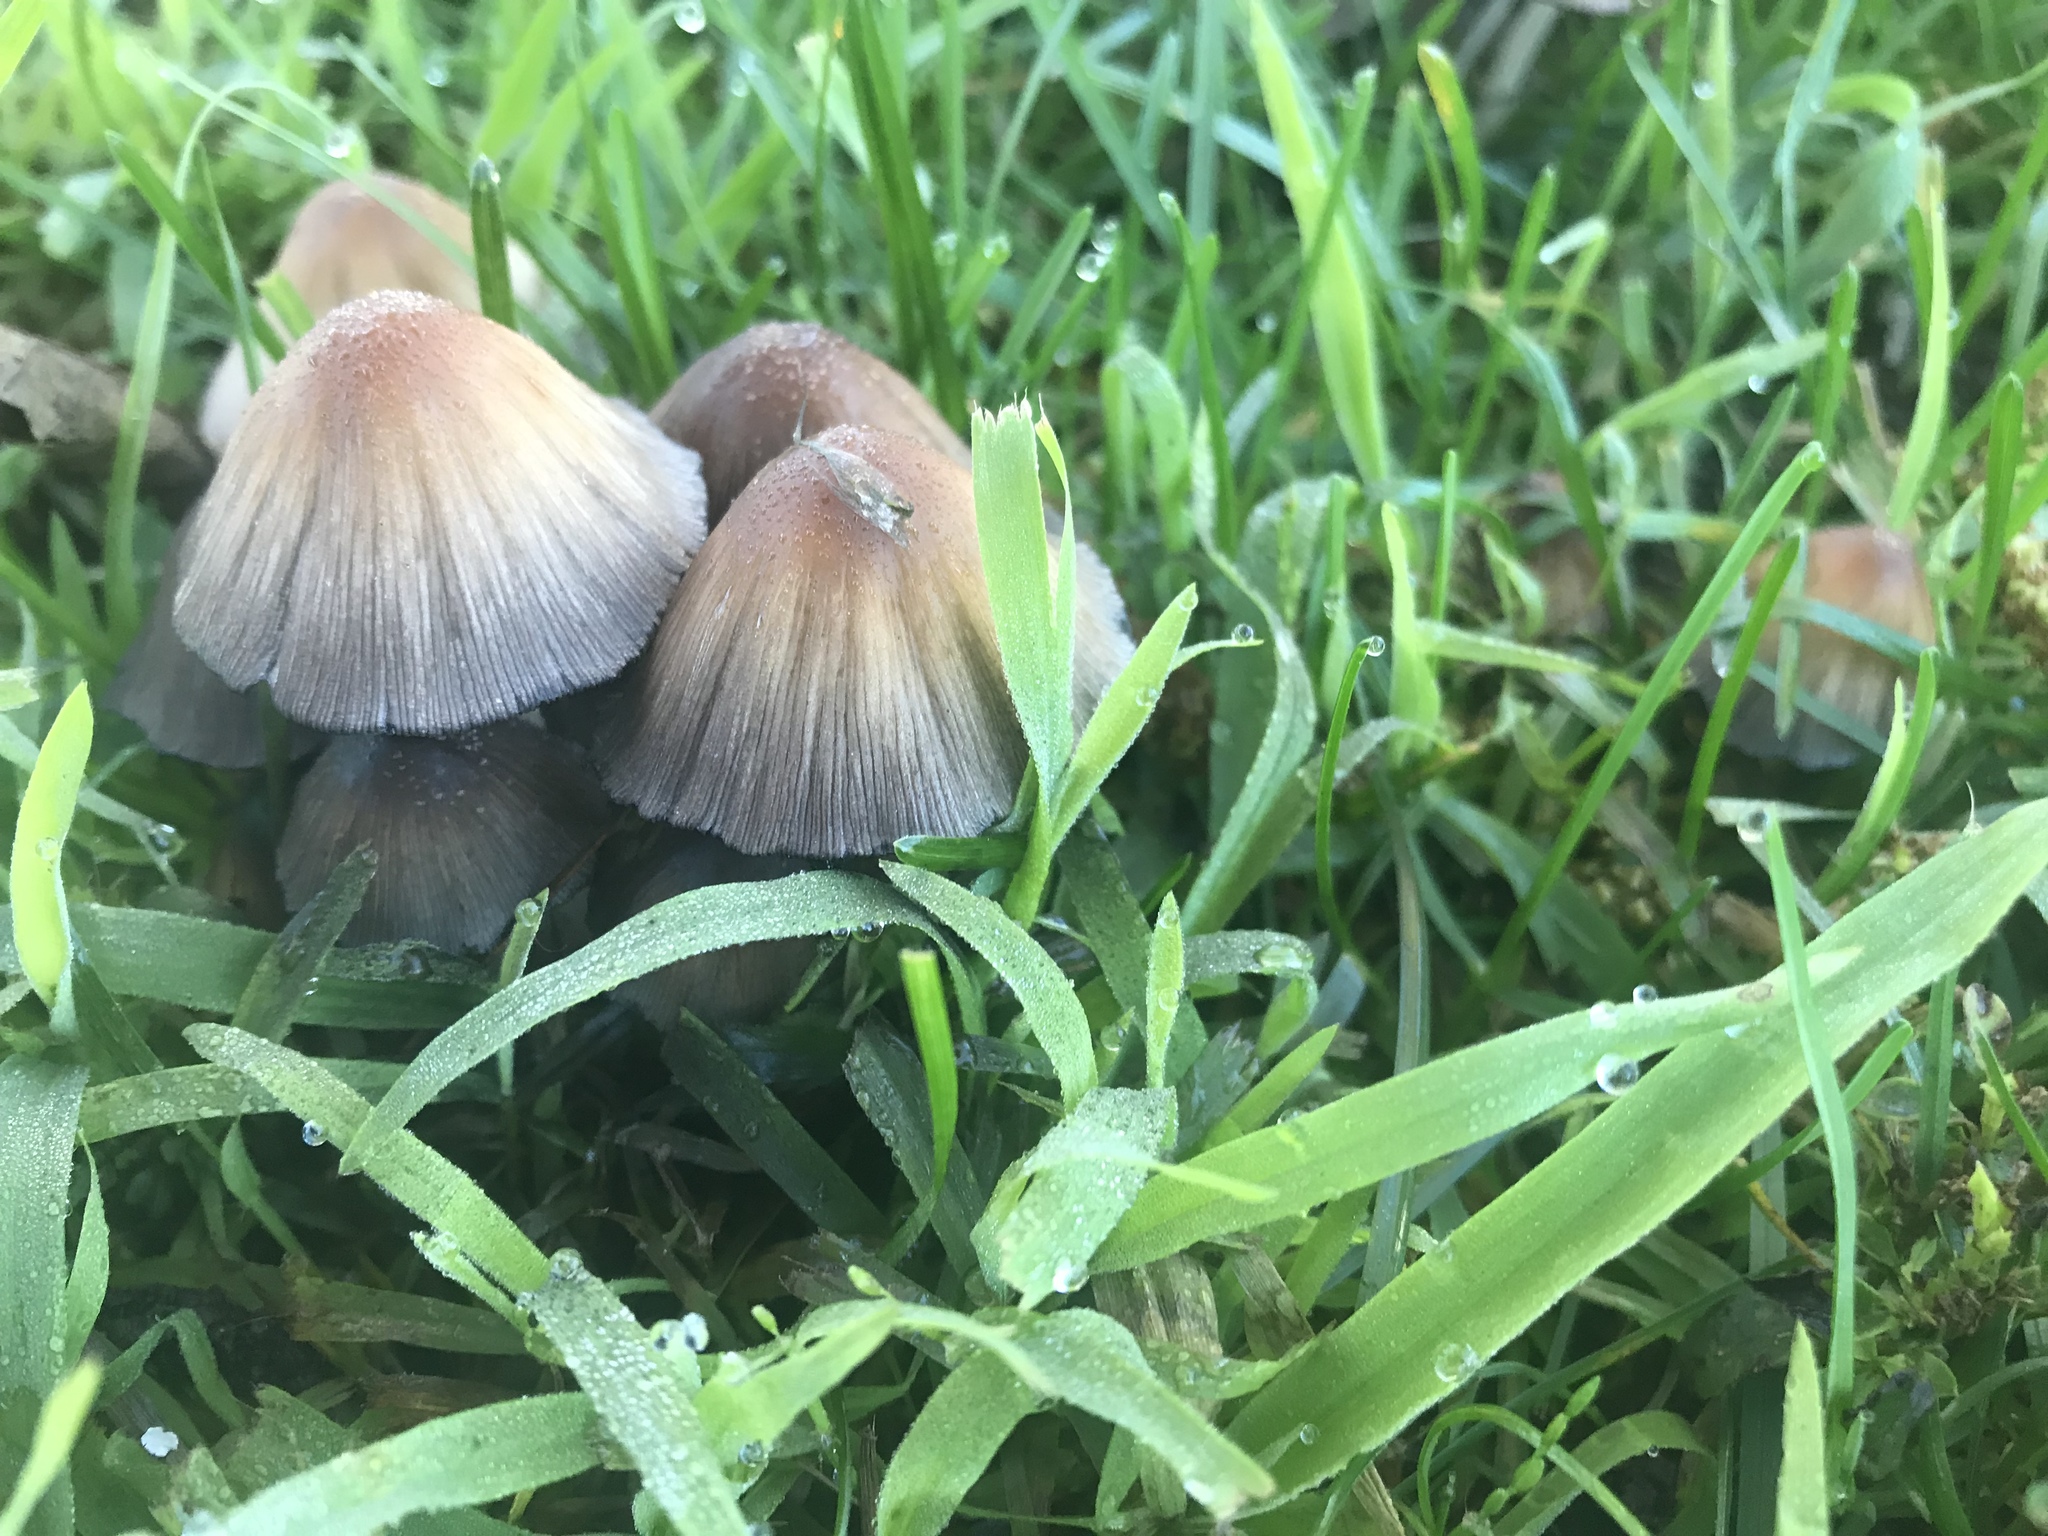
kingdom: Fungi
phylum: Basidiomycota
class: Agaricomycetes
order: Agaricales
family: Psathyrellaceae
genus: Coprinellus
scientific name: Coprinellus micaceus
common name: Glistening ink-cap
